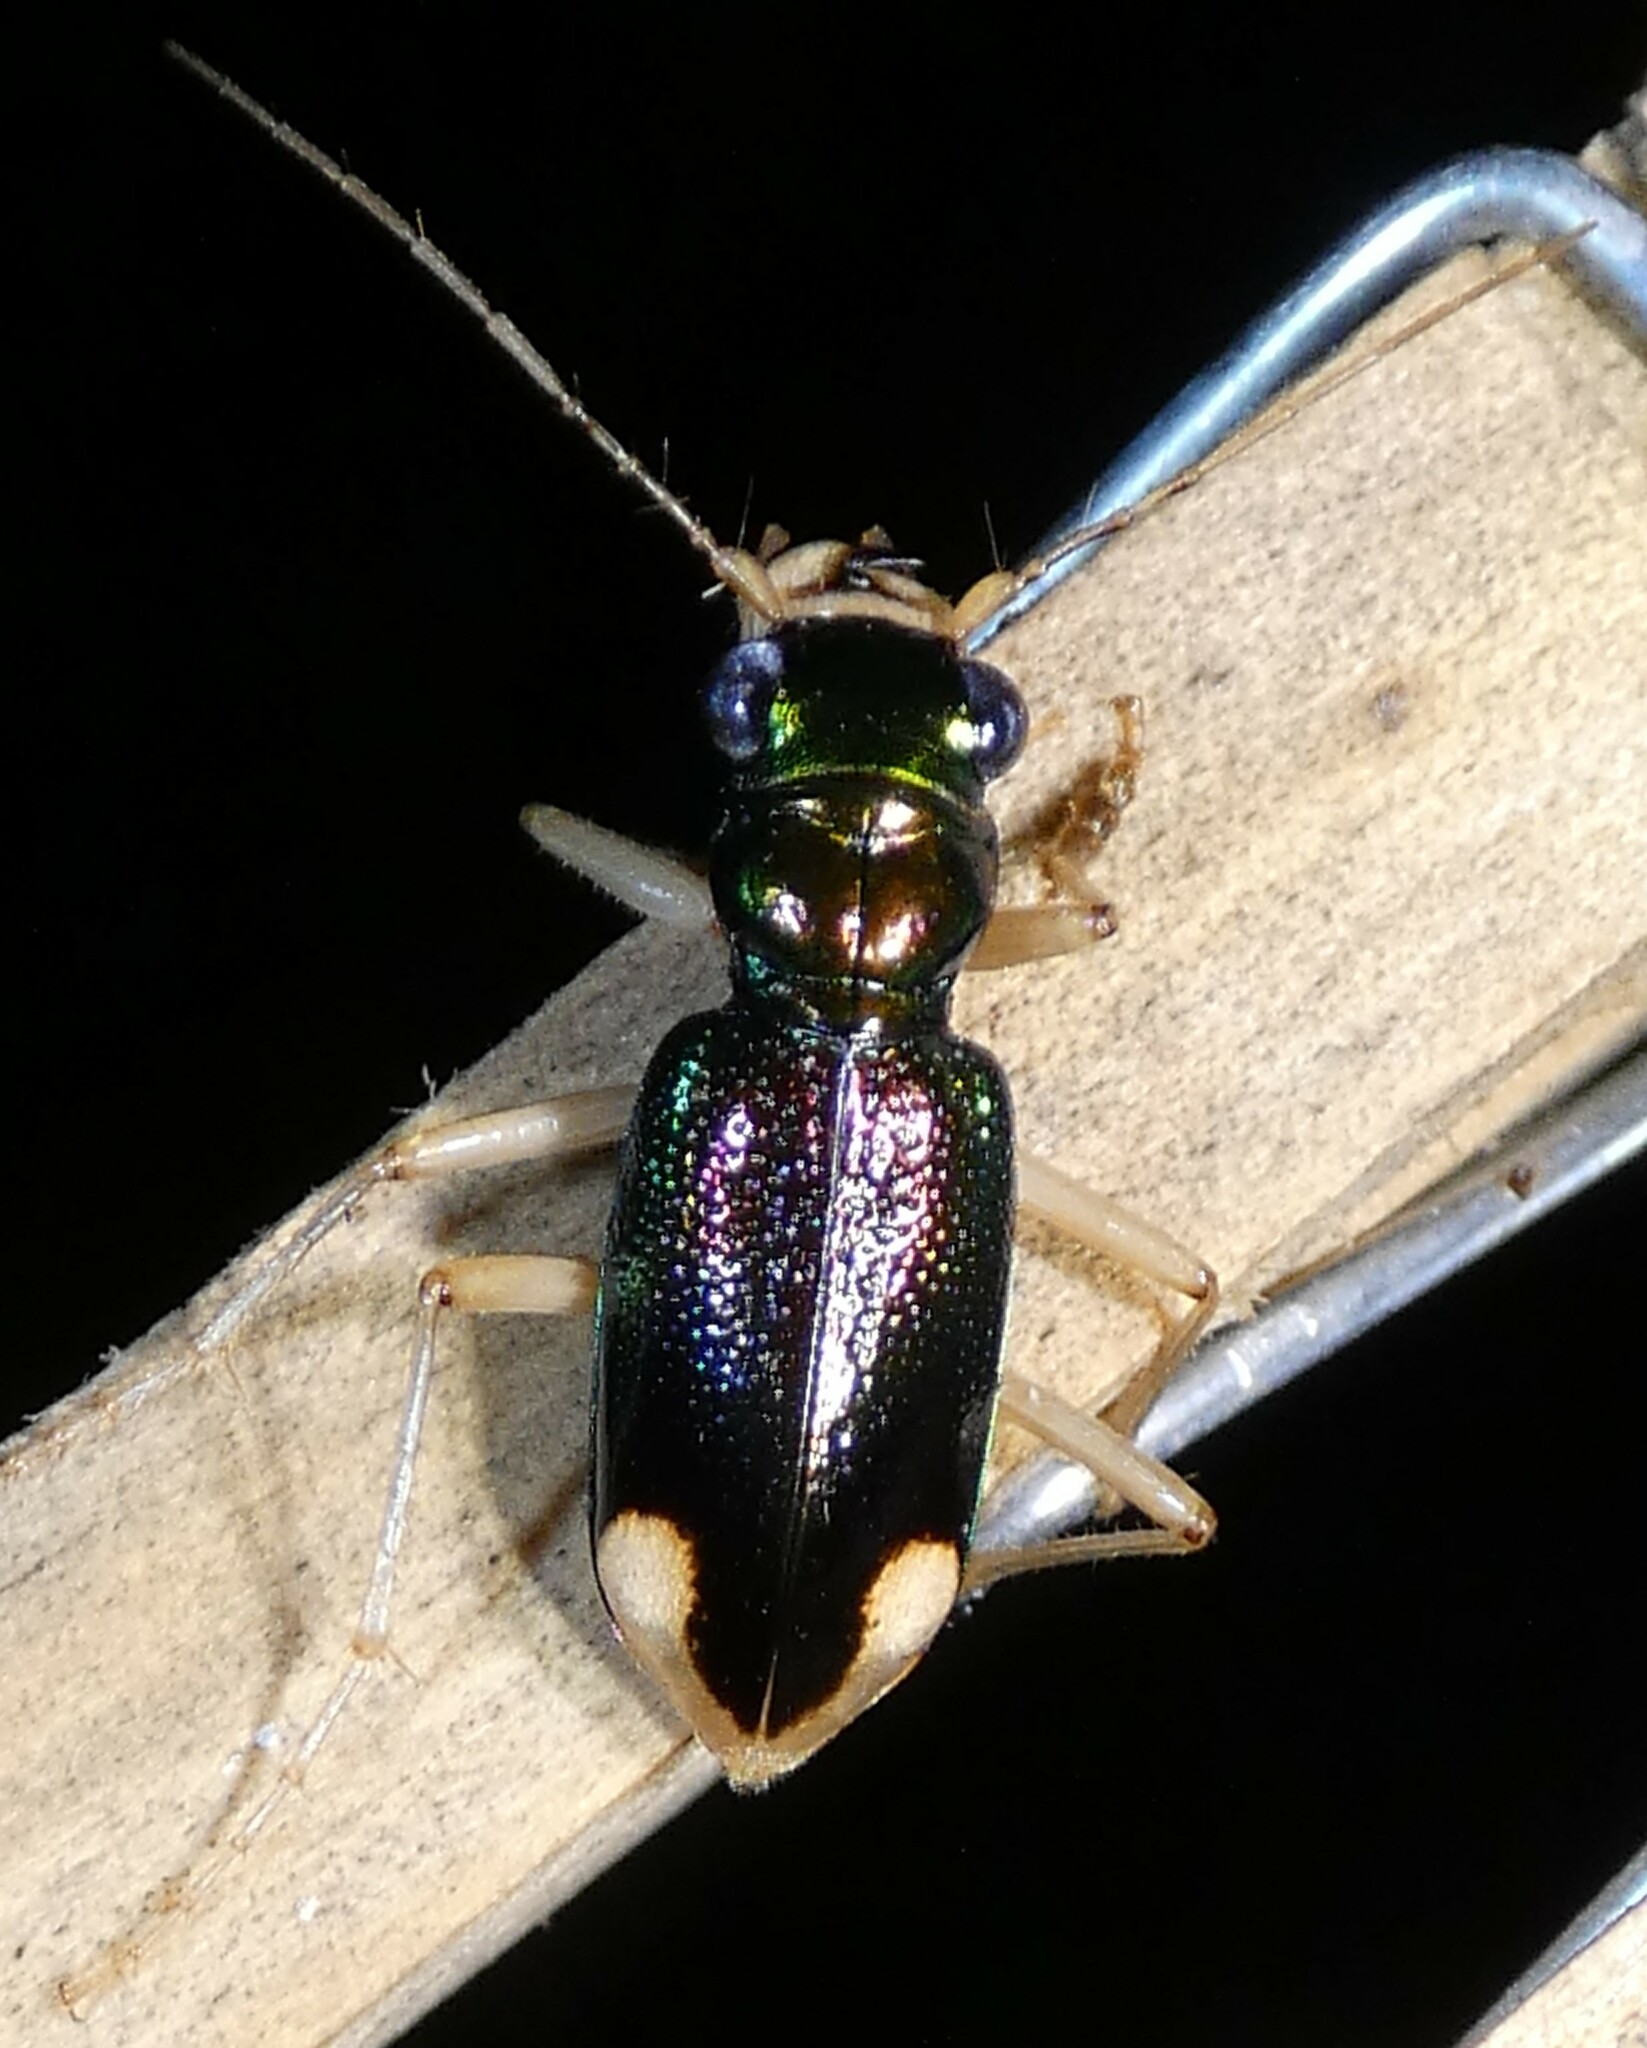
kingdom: Animalia
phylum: Arthropoda
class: Insecta
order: Coleoptera
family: Carabidae
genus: Tetracha
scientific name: Tetracha carolina
